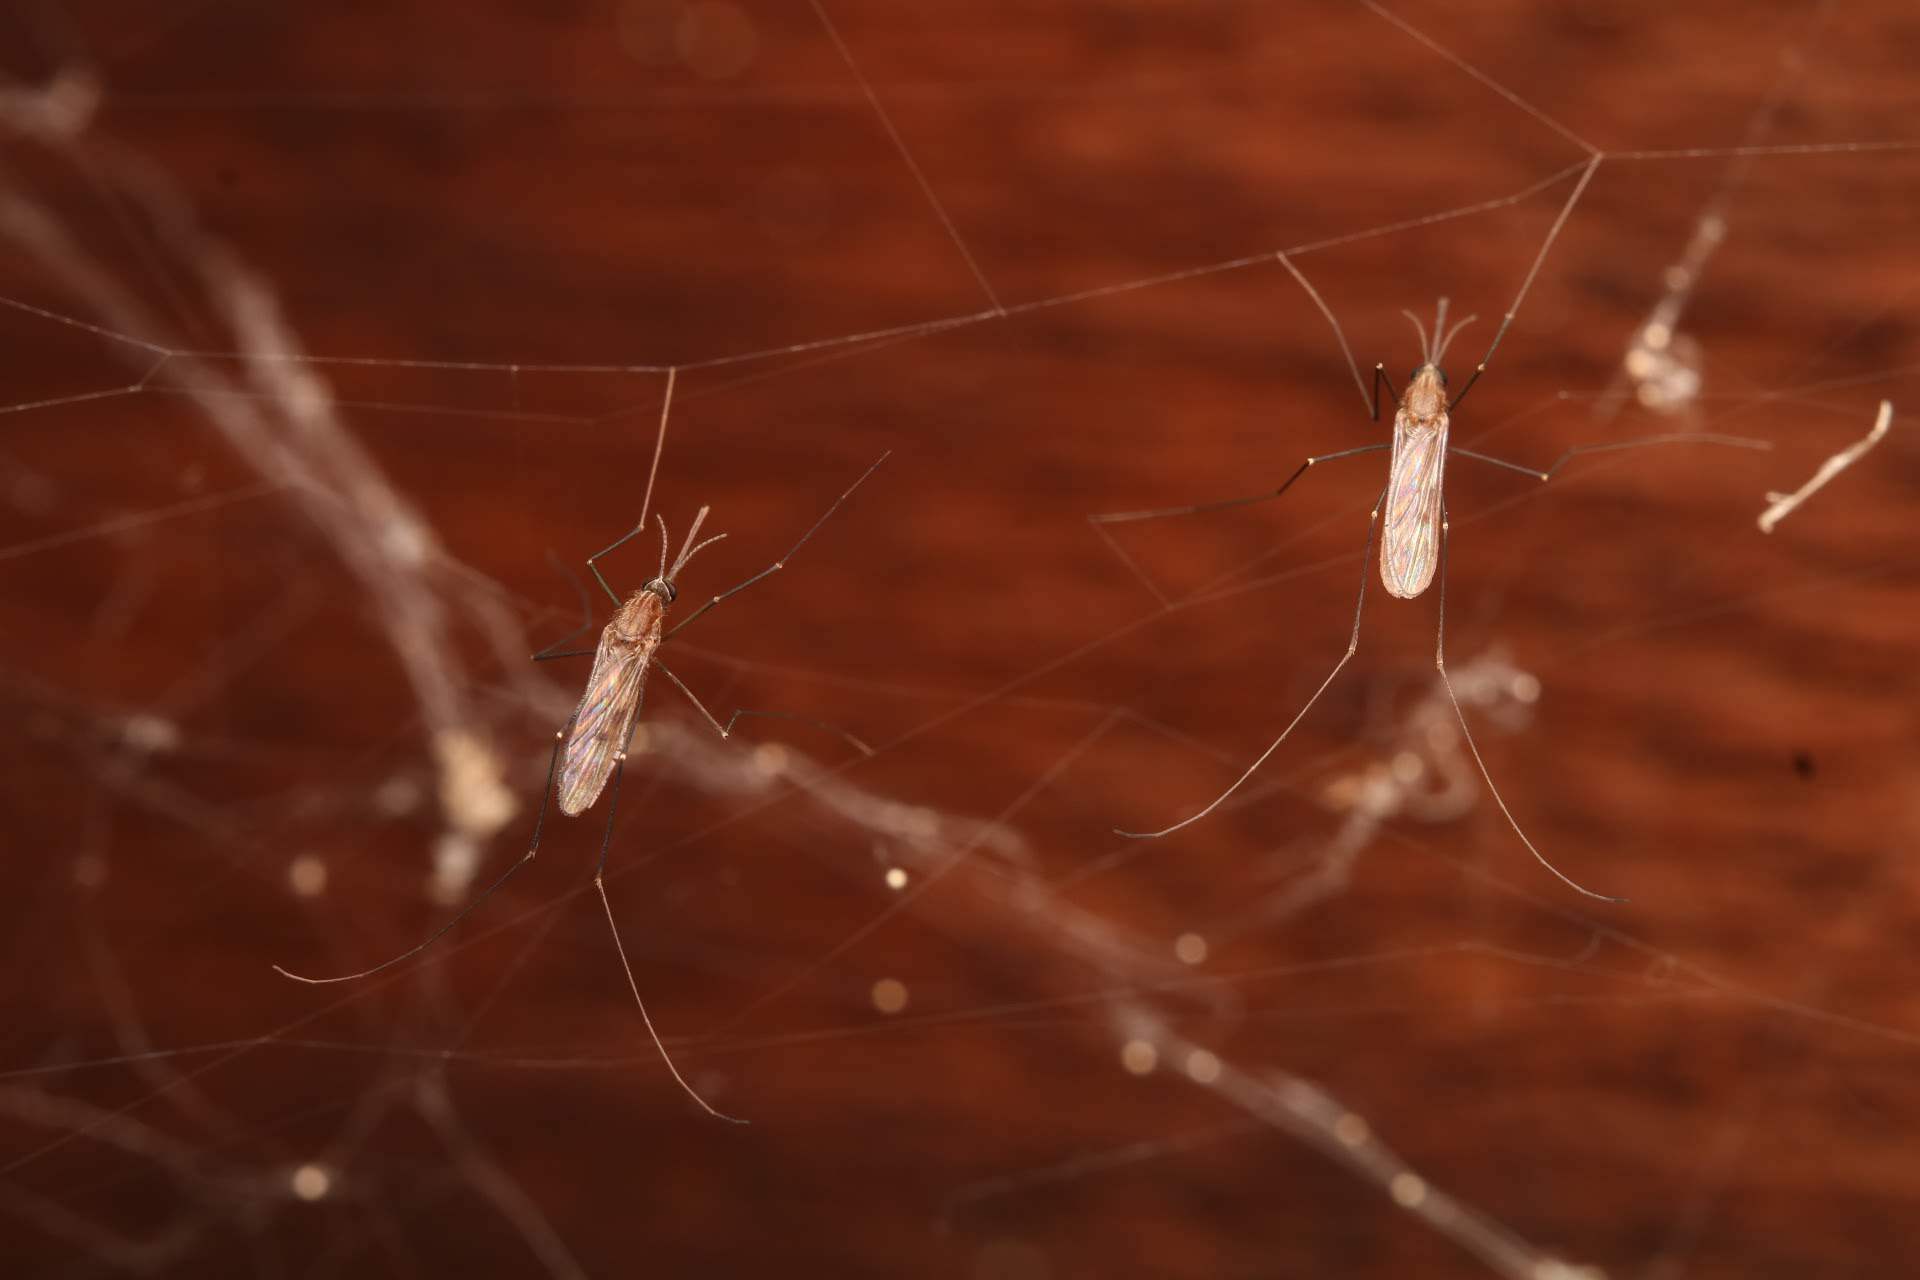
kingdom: Animalia
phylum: Arthropoda
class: Insecta
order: Diptera
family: Culicidae
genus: Anopheles
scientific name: Anopheles
